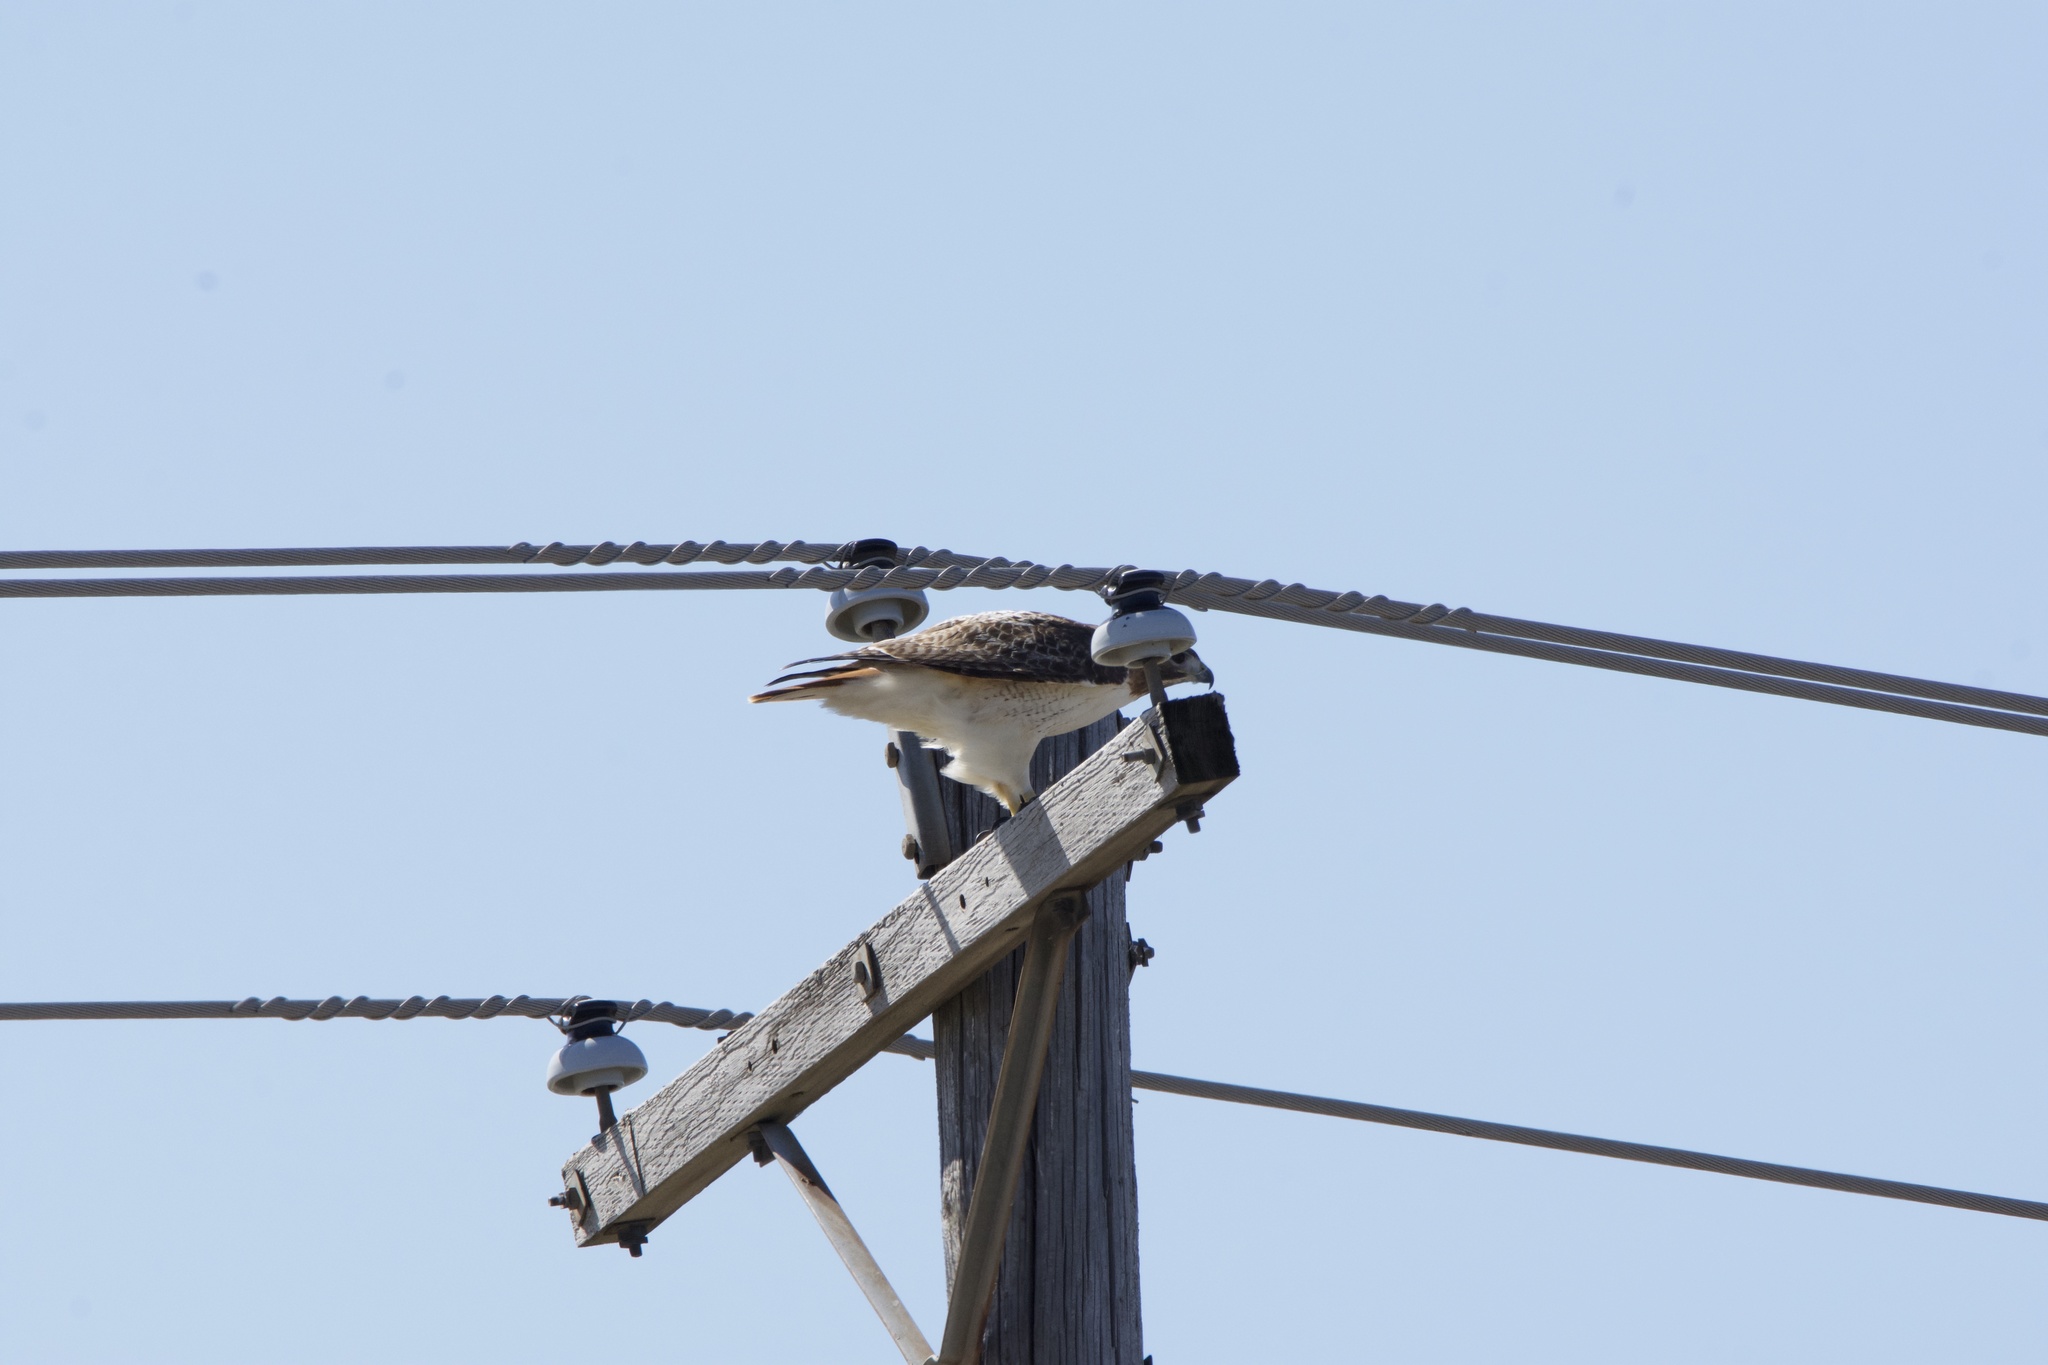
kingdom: Animalia
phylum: Chordata
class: Aves
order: Accipitriformes
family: Accipitridae
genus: Buteo
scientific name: Buteo jamaicensis
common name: Red-tailed hawk
